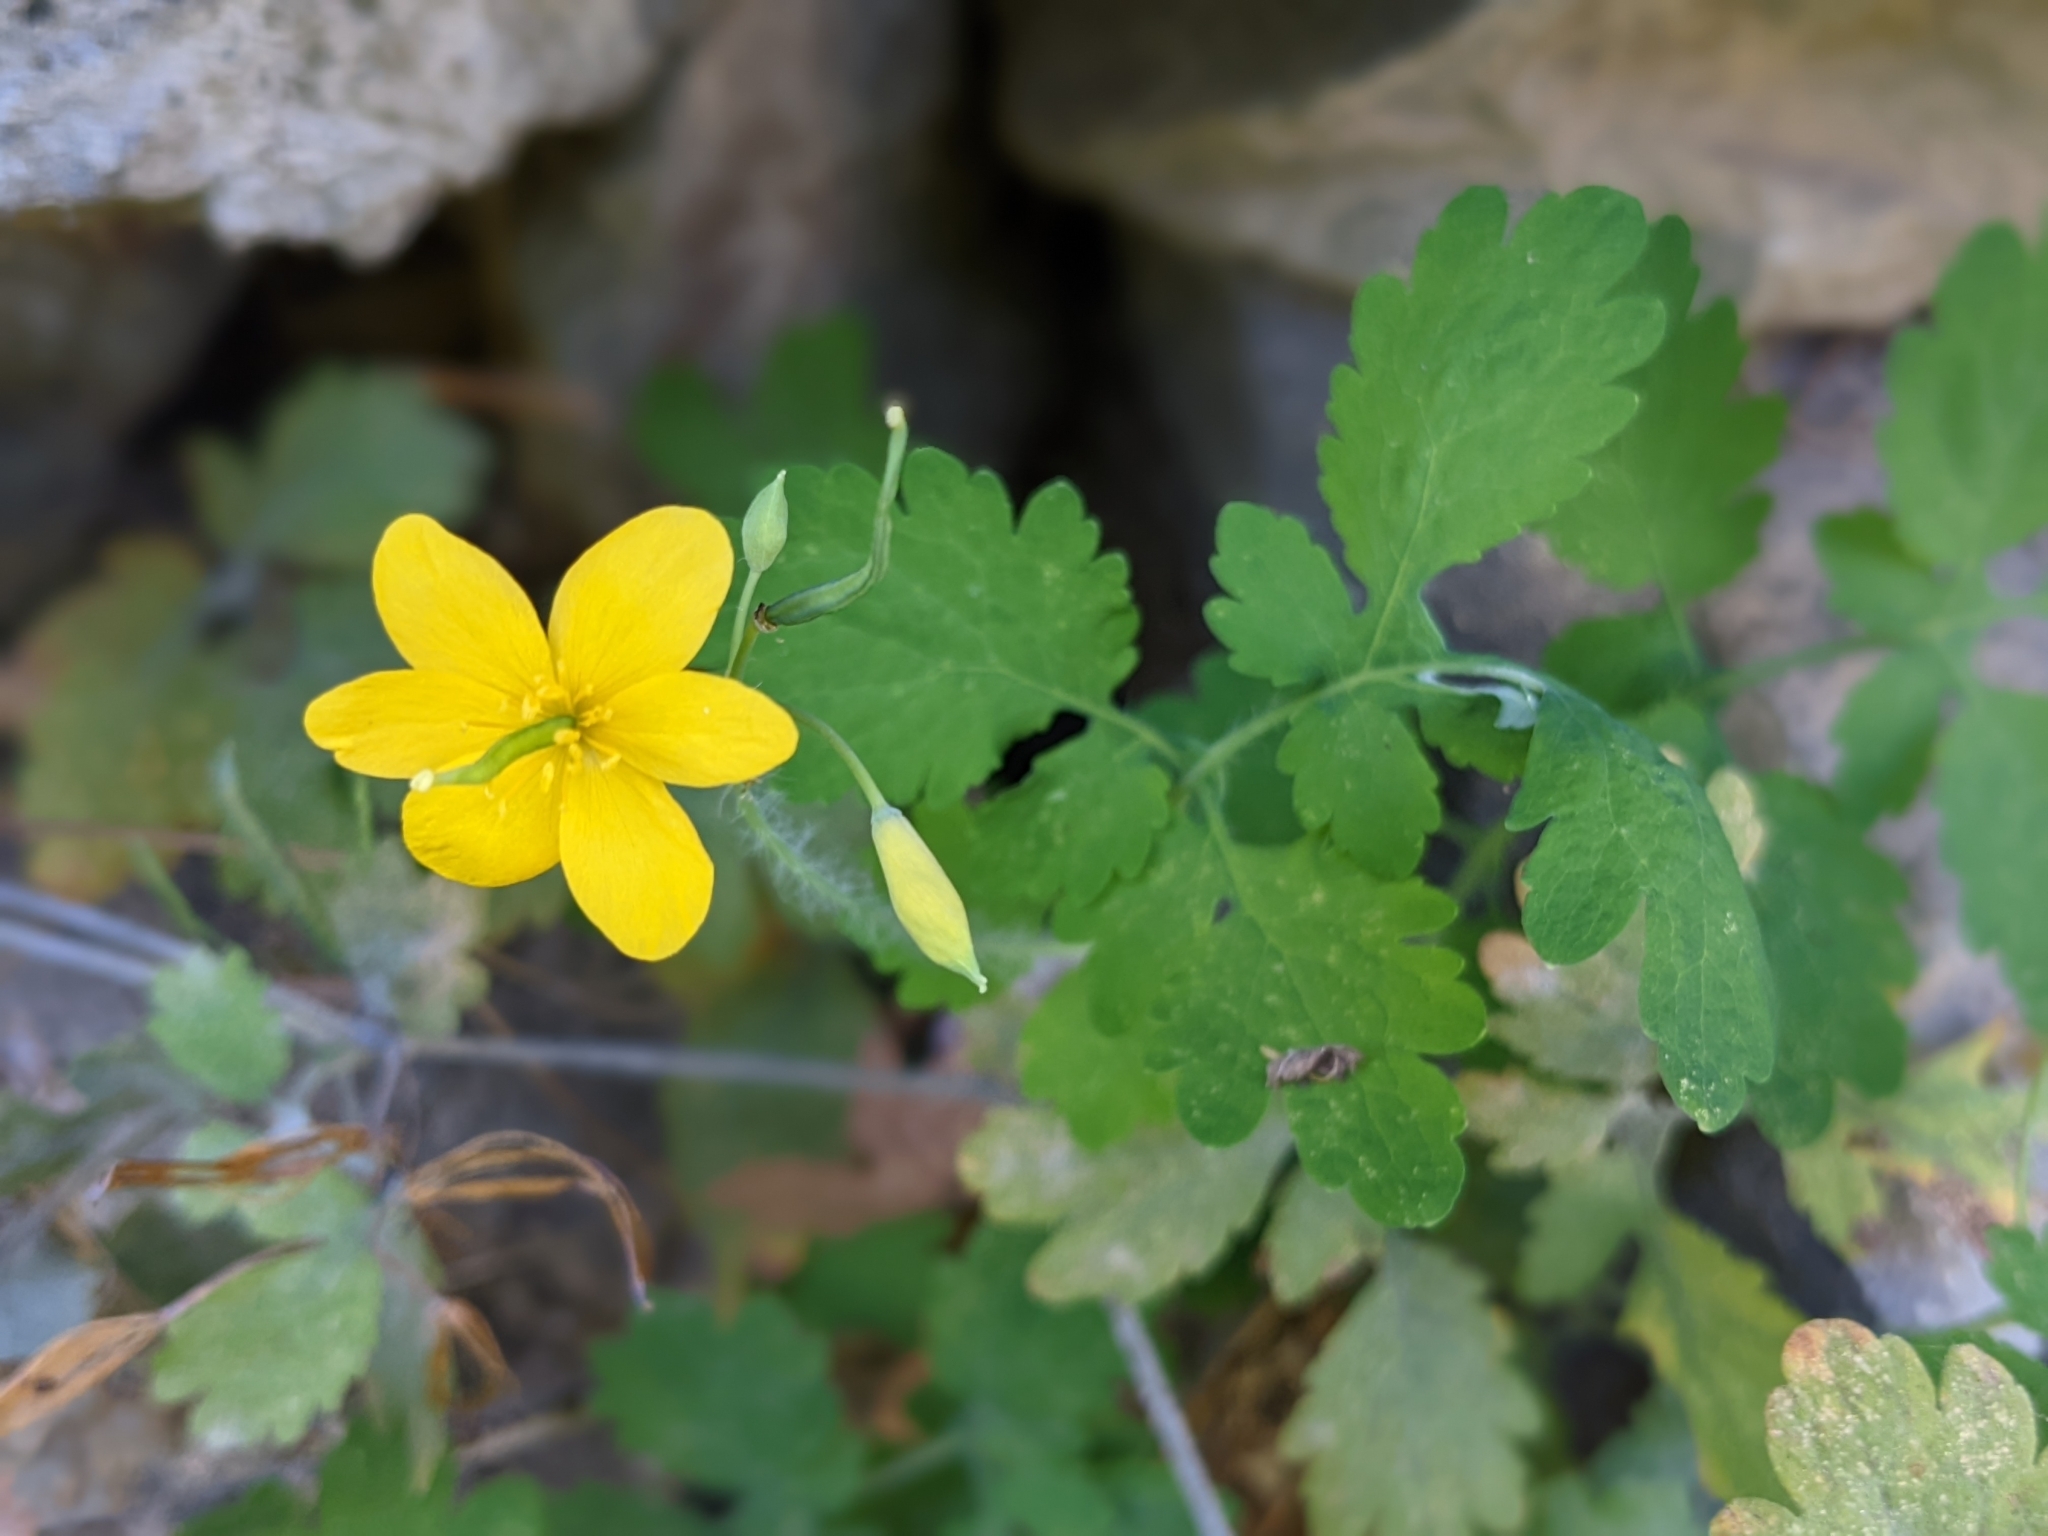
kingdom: Plantae
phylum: Tracheophyta
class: Magnoliopsida
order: Ranunculales
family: Papaveraceae
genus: Chelidonium
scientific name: Chelidonium majus
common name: Greater celandine
